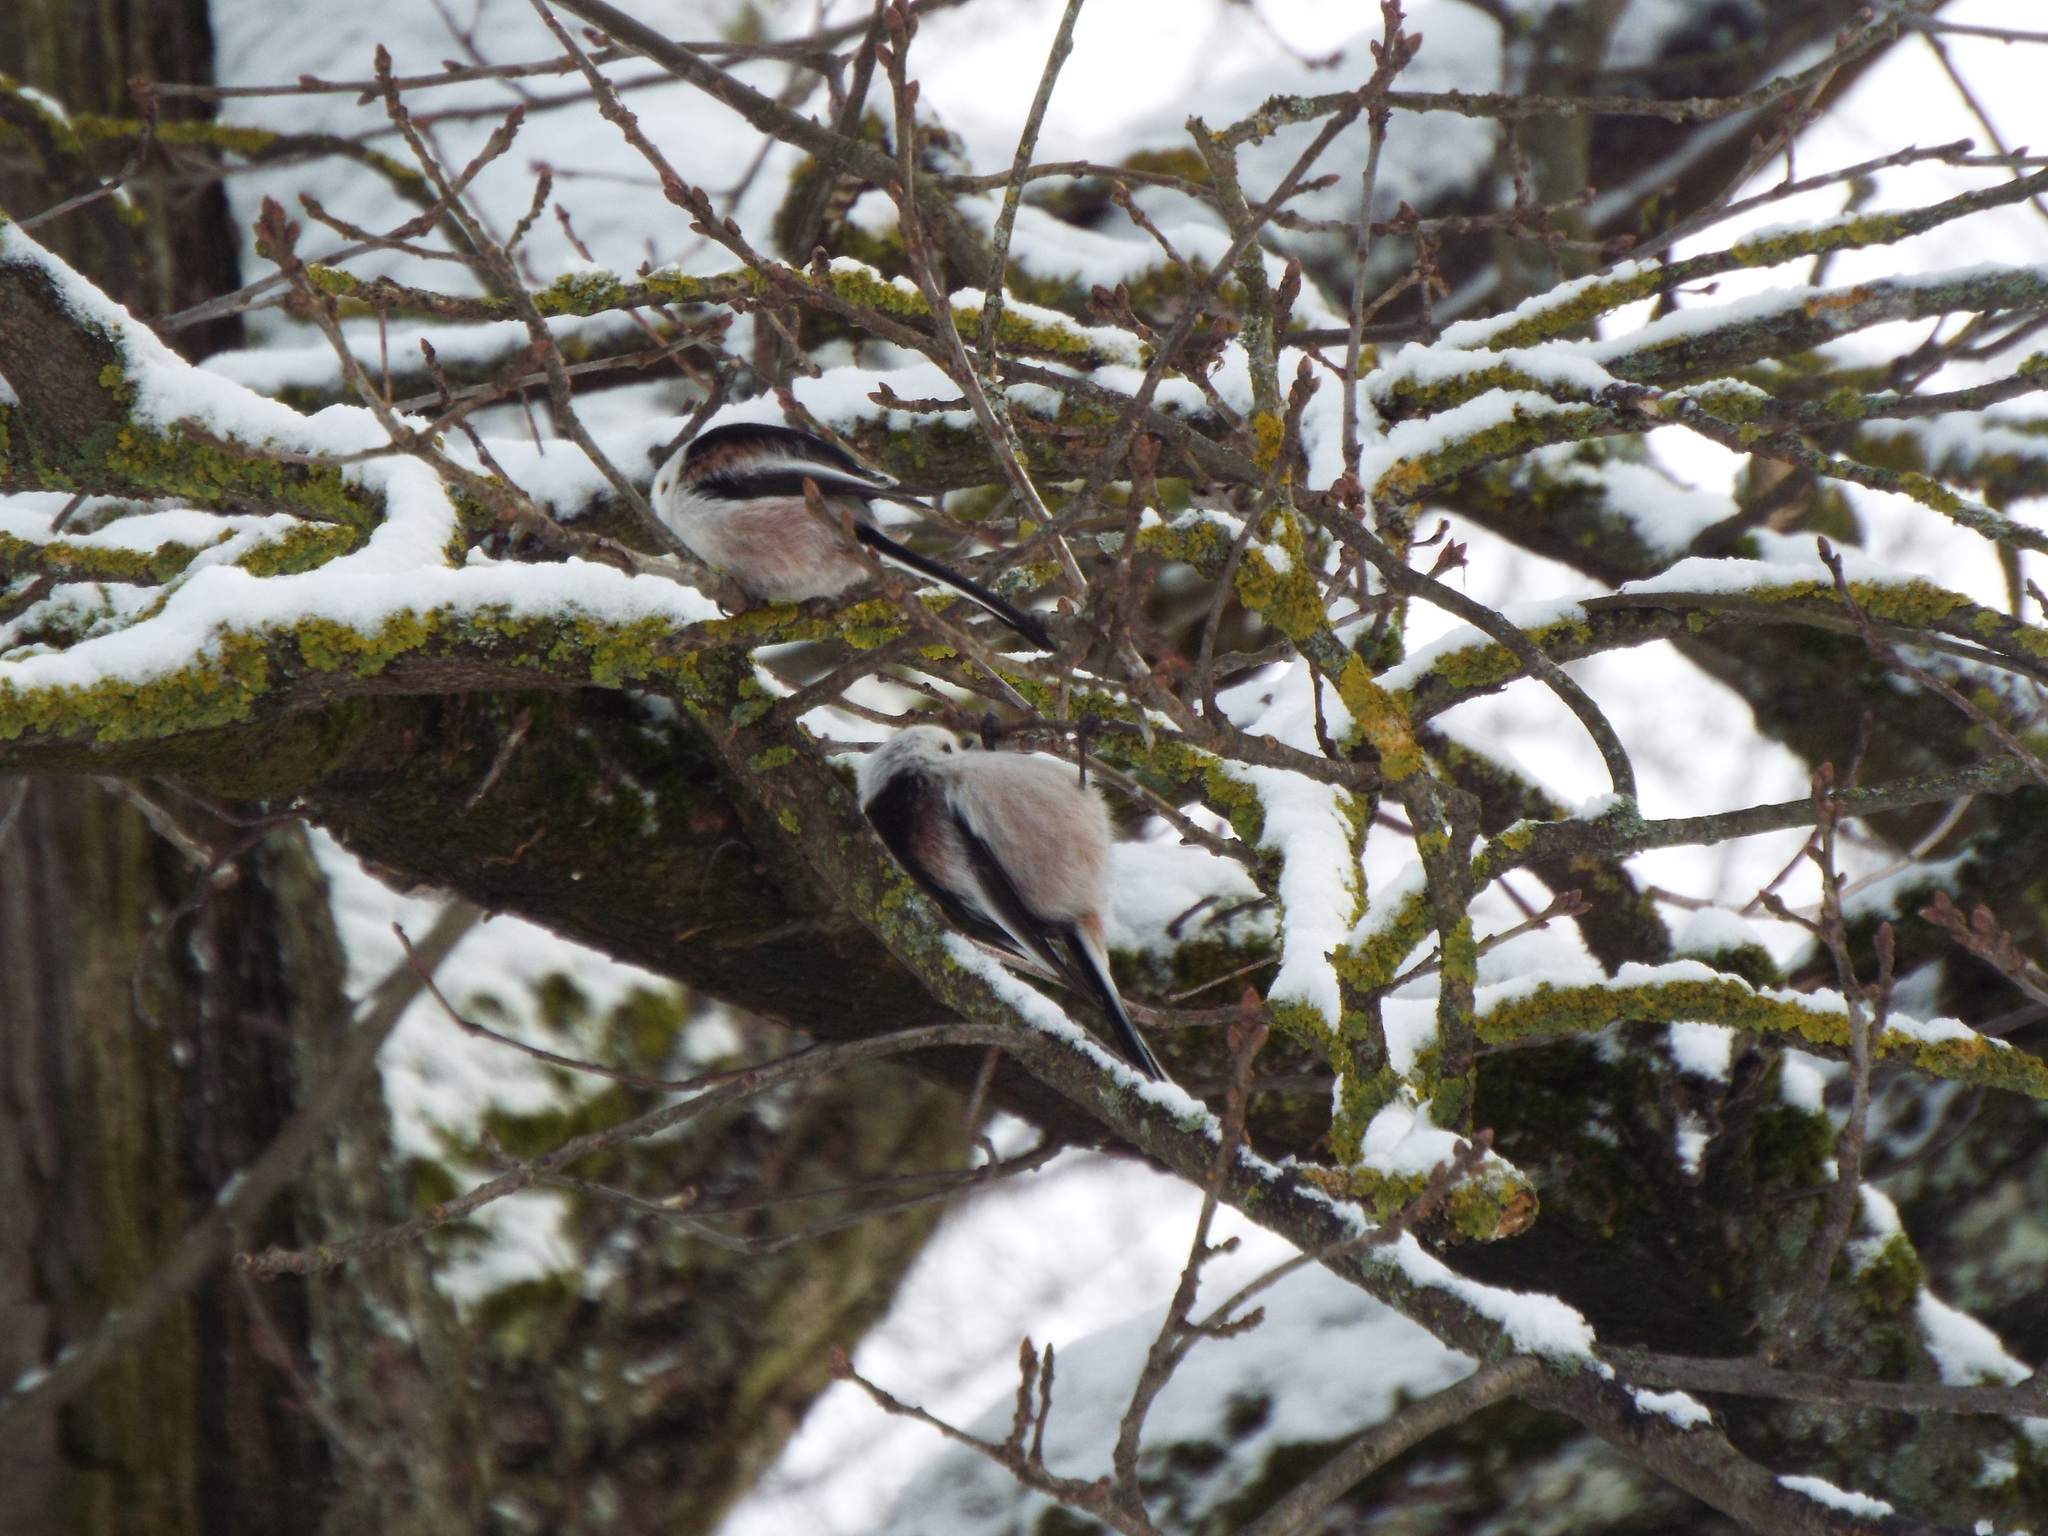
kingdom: Animalia
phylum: Chordata
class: Aves
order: Passeriformes
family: Aegithalidae
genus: Aegithalos
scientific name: Aegithalos caudatus
